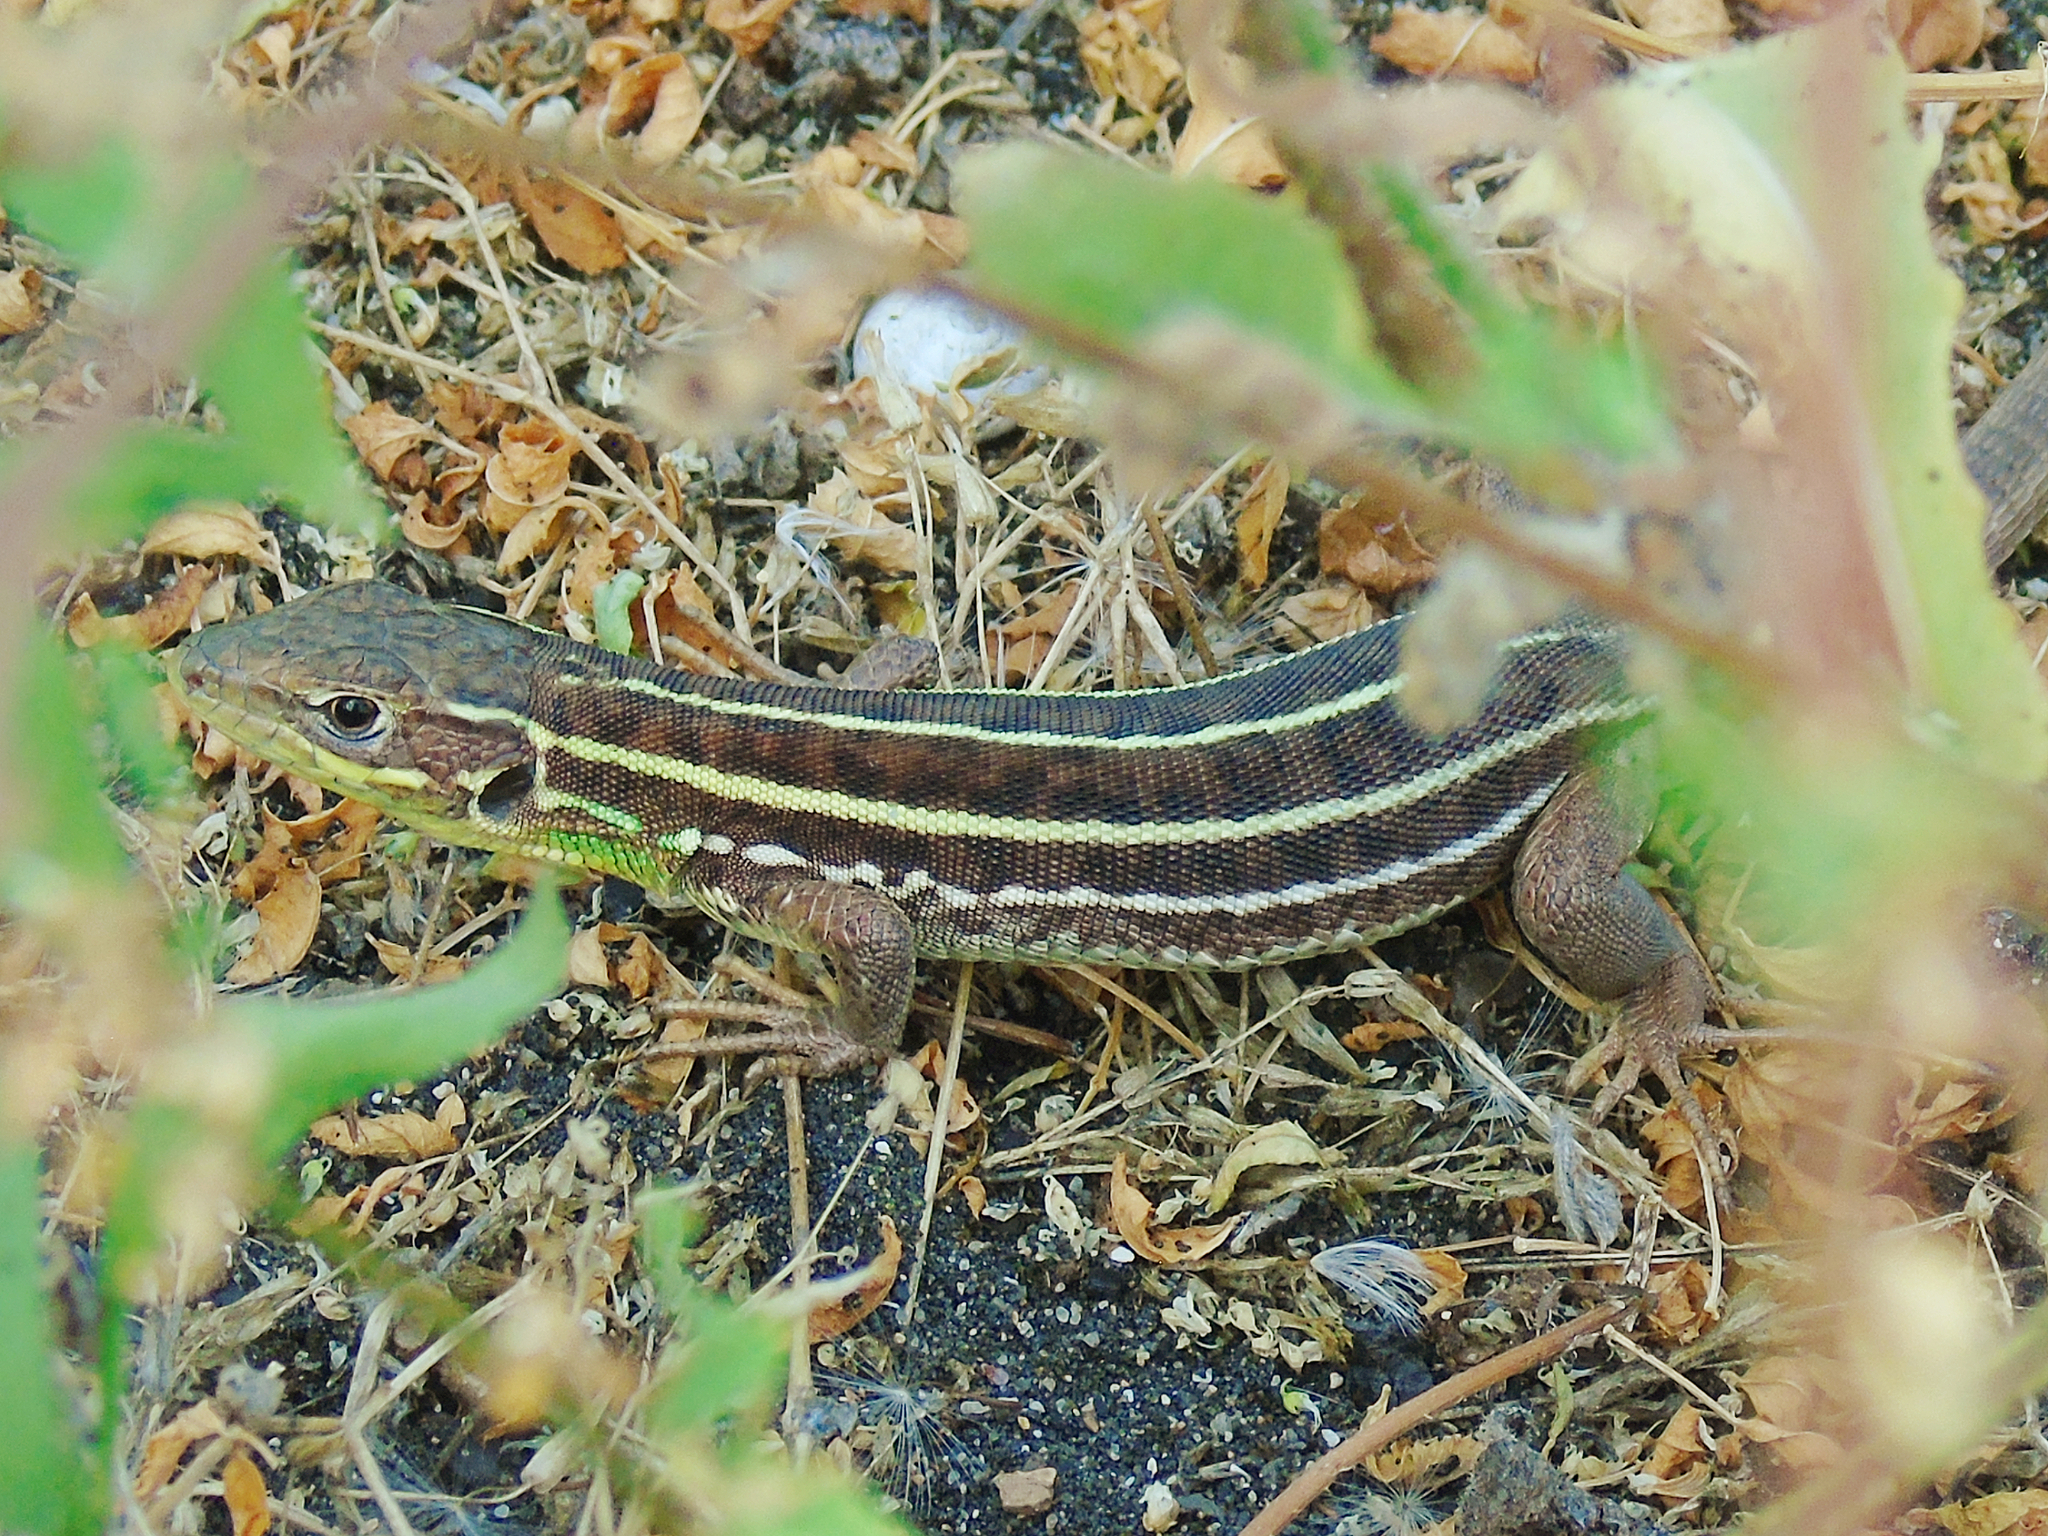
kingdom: Animalia
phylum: Chordata
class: Squamata
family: Lacertidae
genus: Lacerta
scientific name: Lacerta diplochondrodes
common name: Rhodos green lizard
